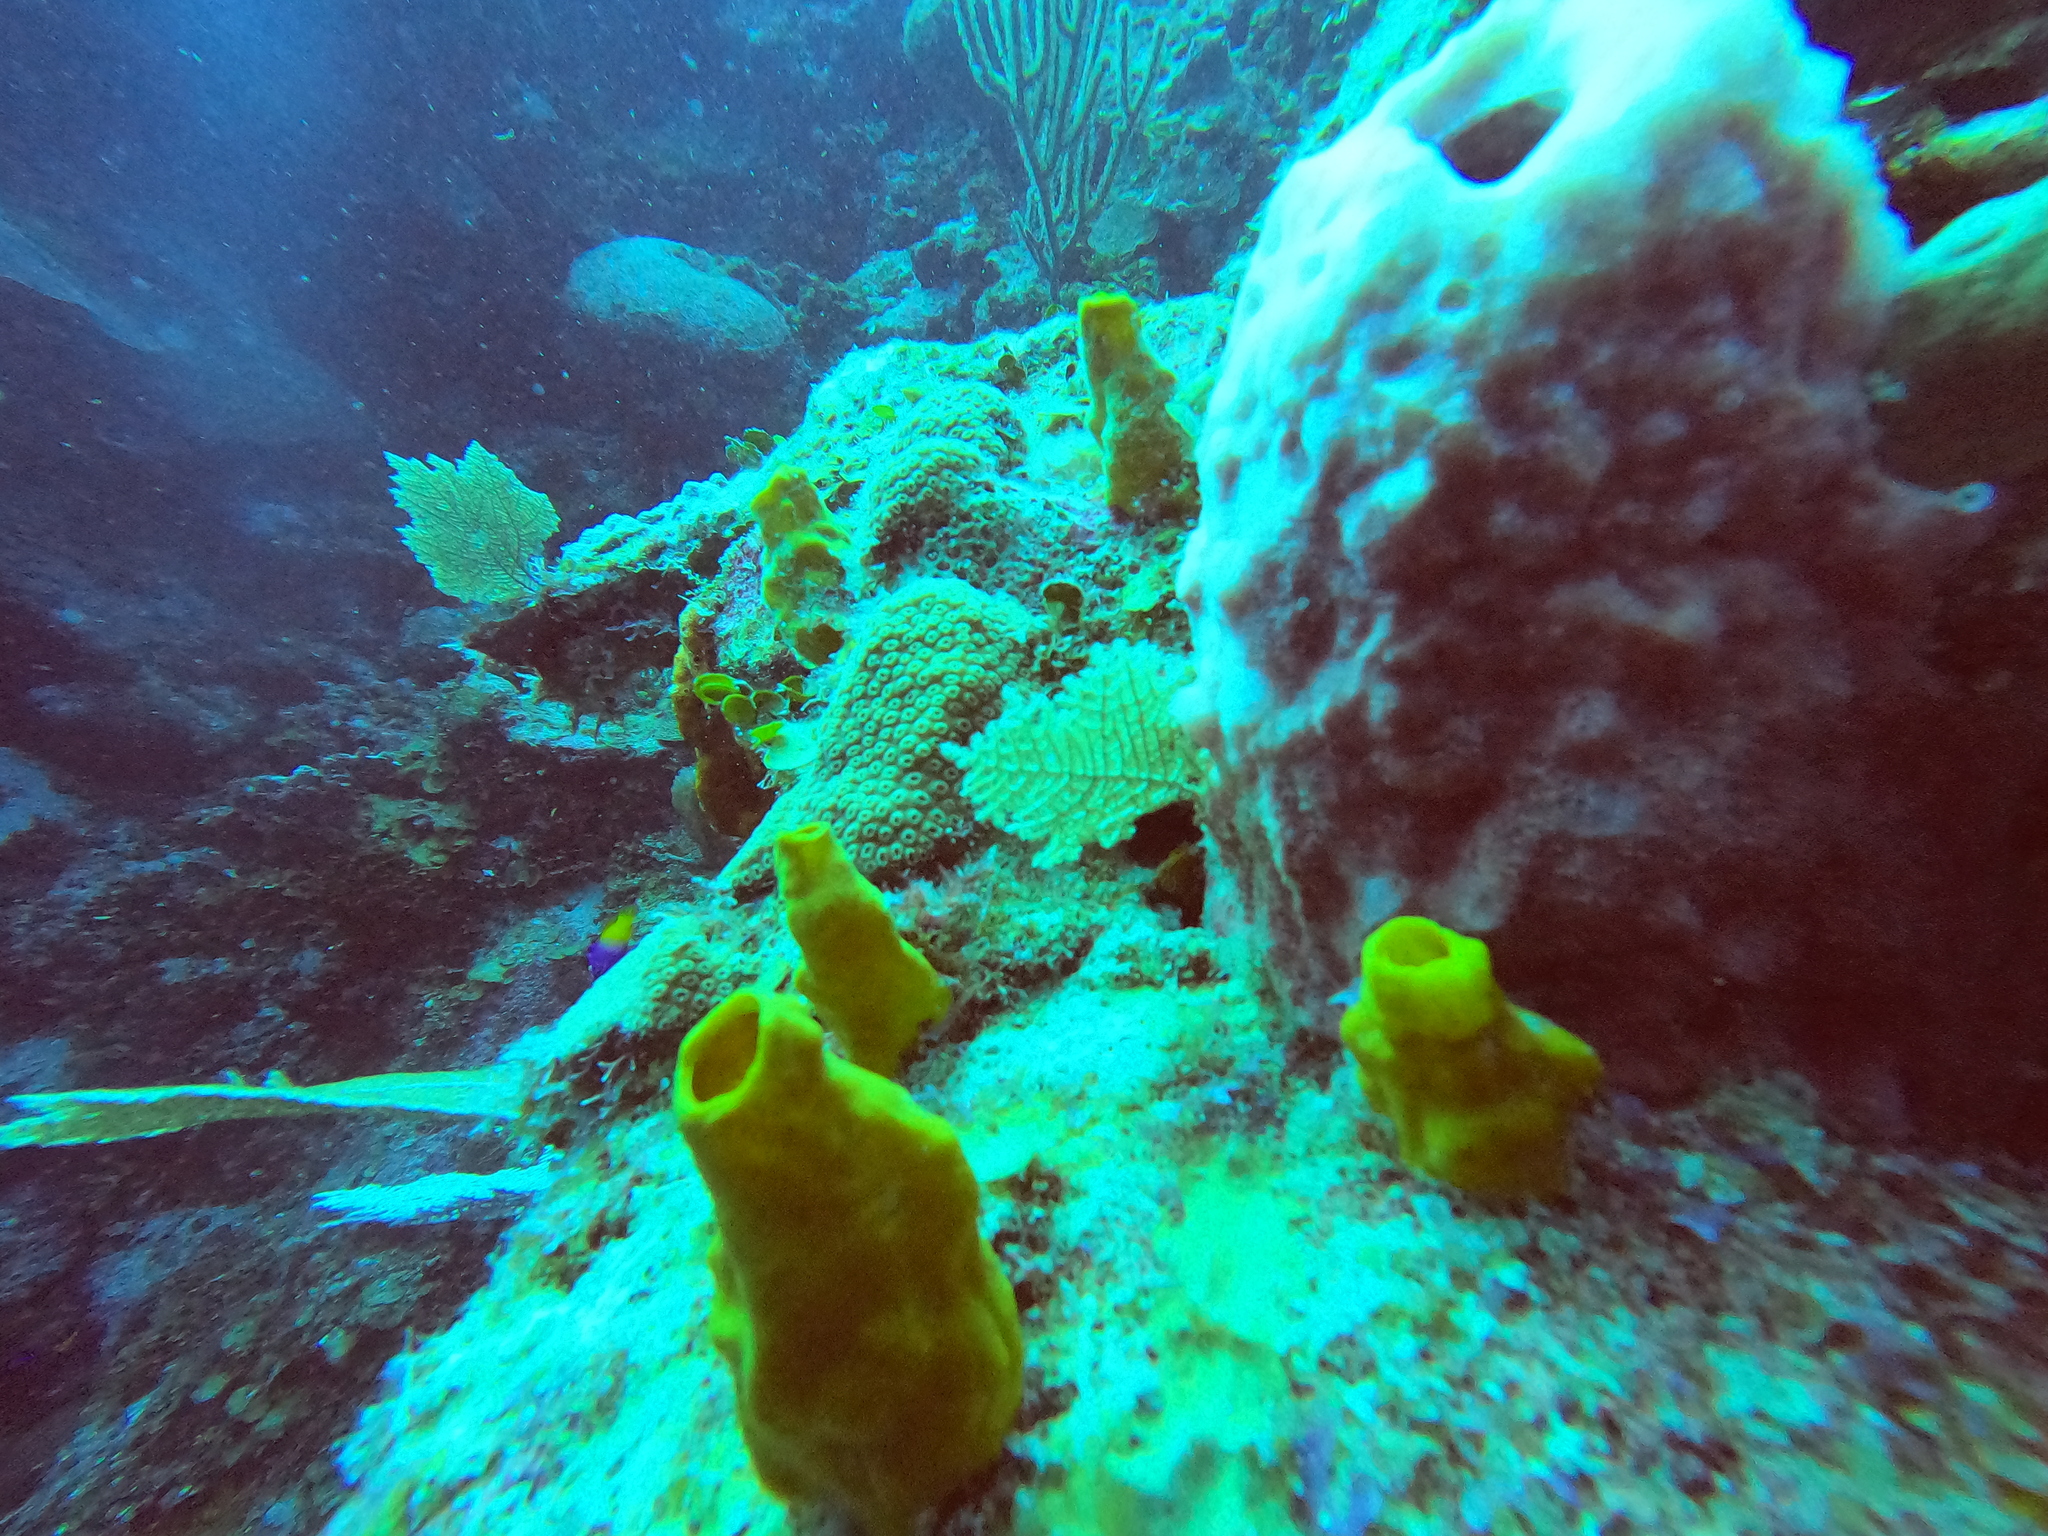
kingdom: Animalia
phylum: Porifera
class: Demospongiae
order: Haplosclerida
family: Phloeodictyidae
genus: Siphonodictyon
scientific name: Siphonodictyon coralliphagum
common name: Coral-eating boring sponge
